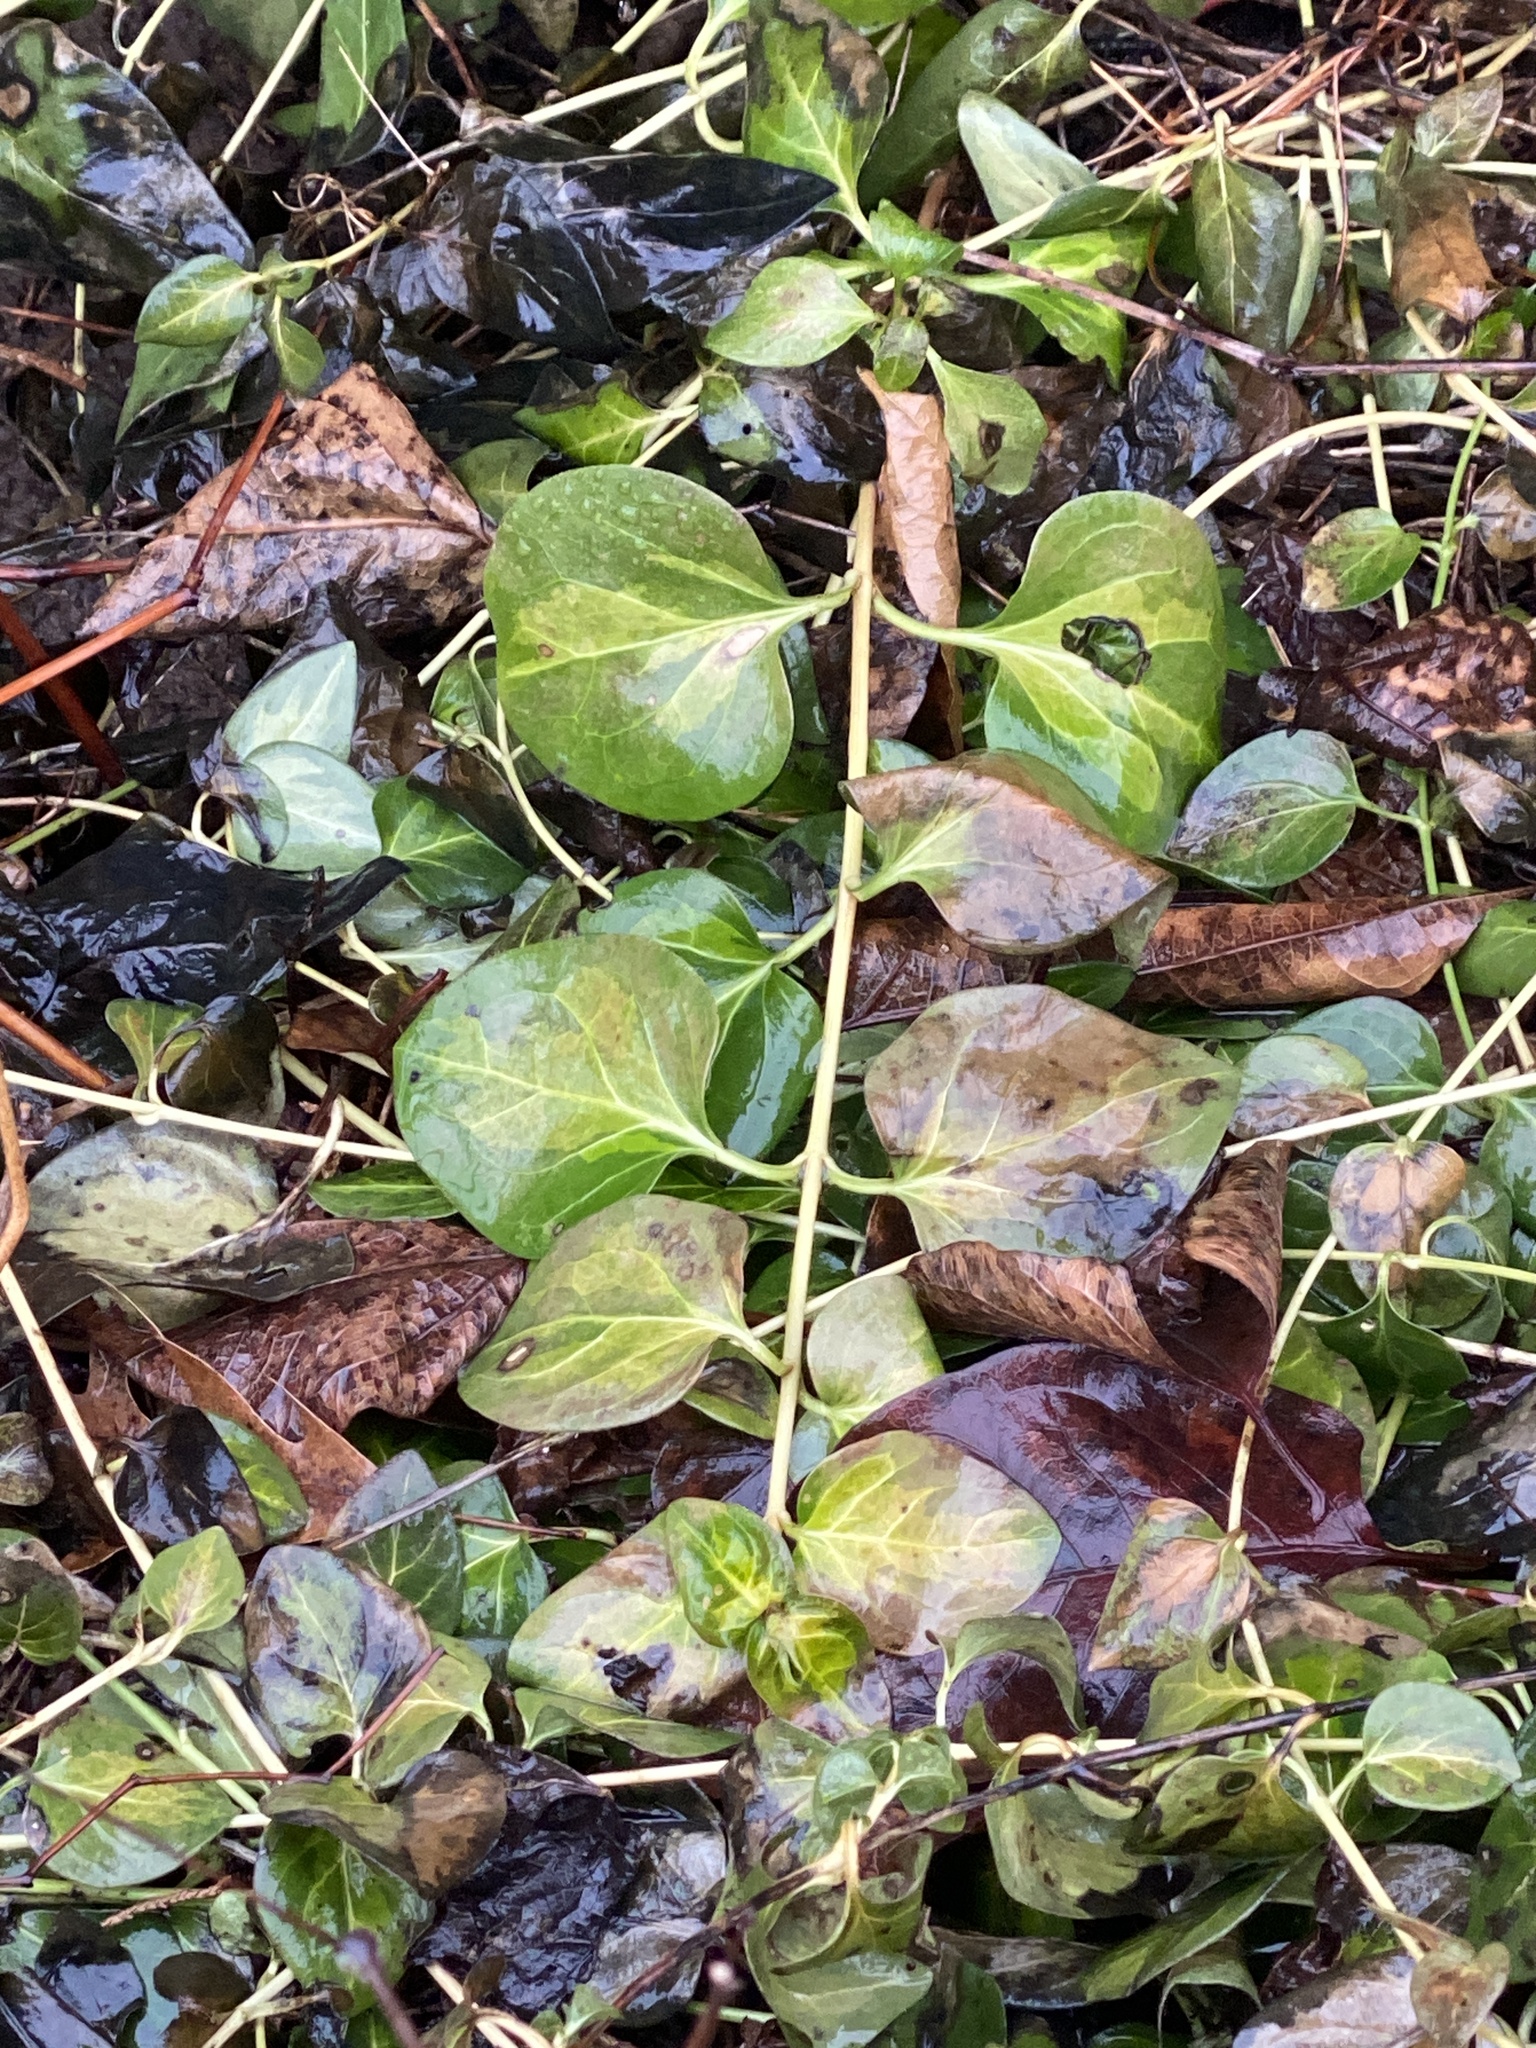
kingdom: Plantae
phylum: Tracheophyta
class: Magnoliopsida
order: Gentianales
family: Apocynaceae
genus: Vinca
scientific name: Vinca major
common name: Greater periwinkle
